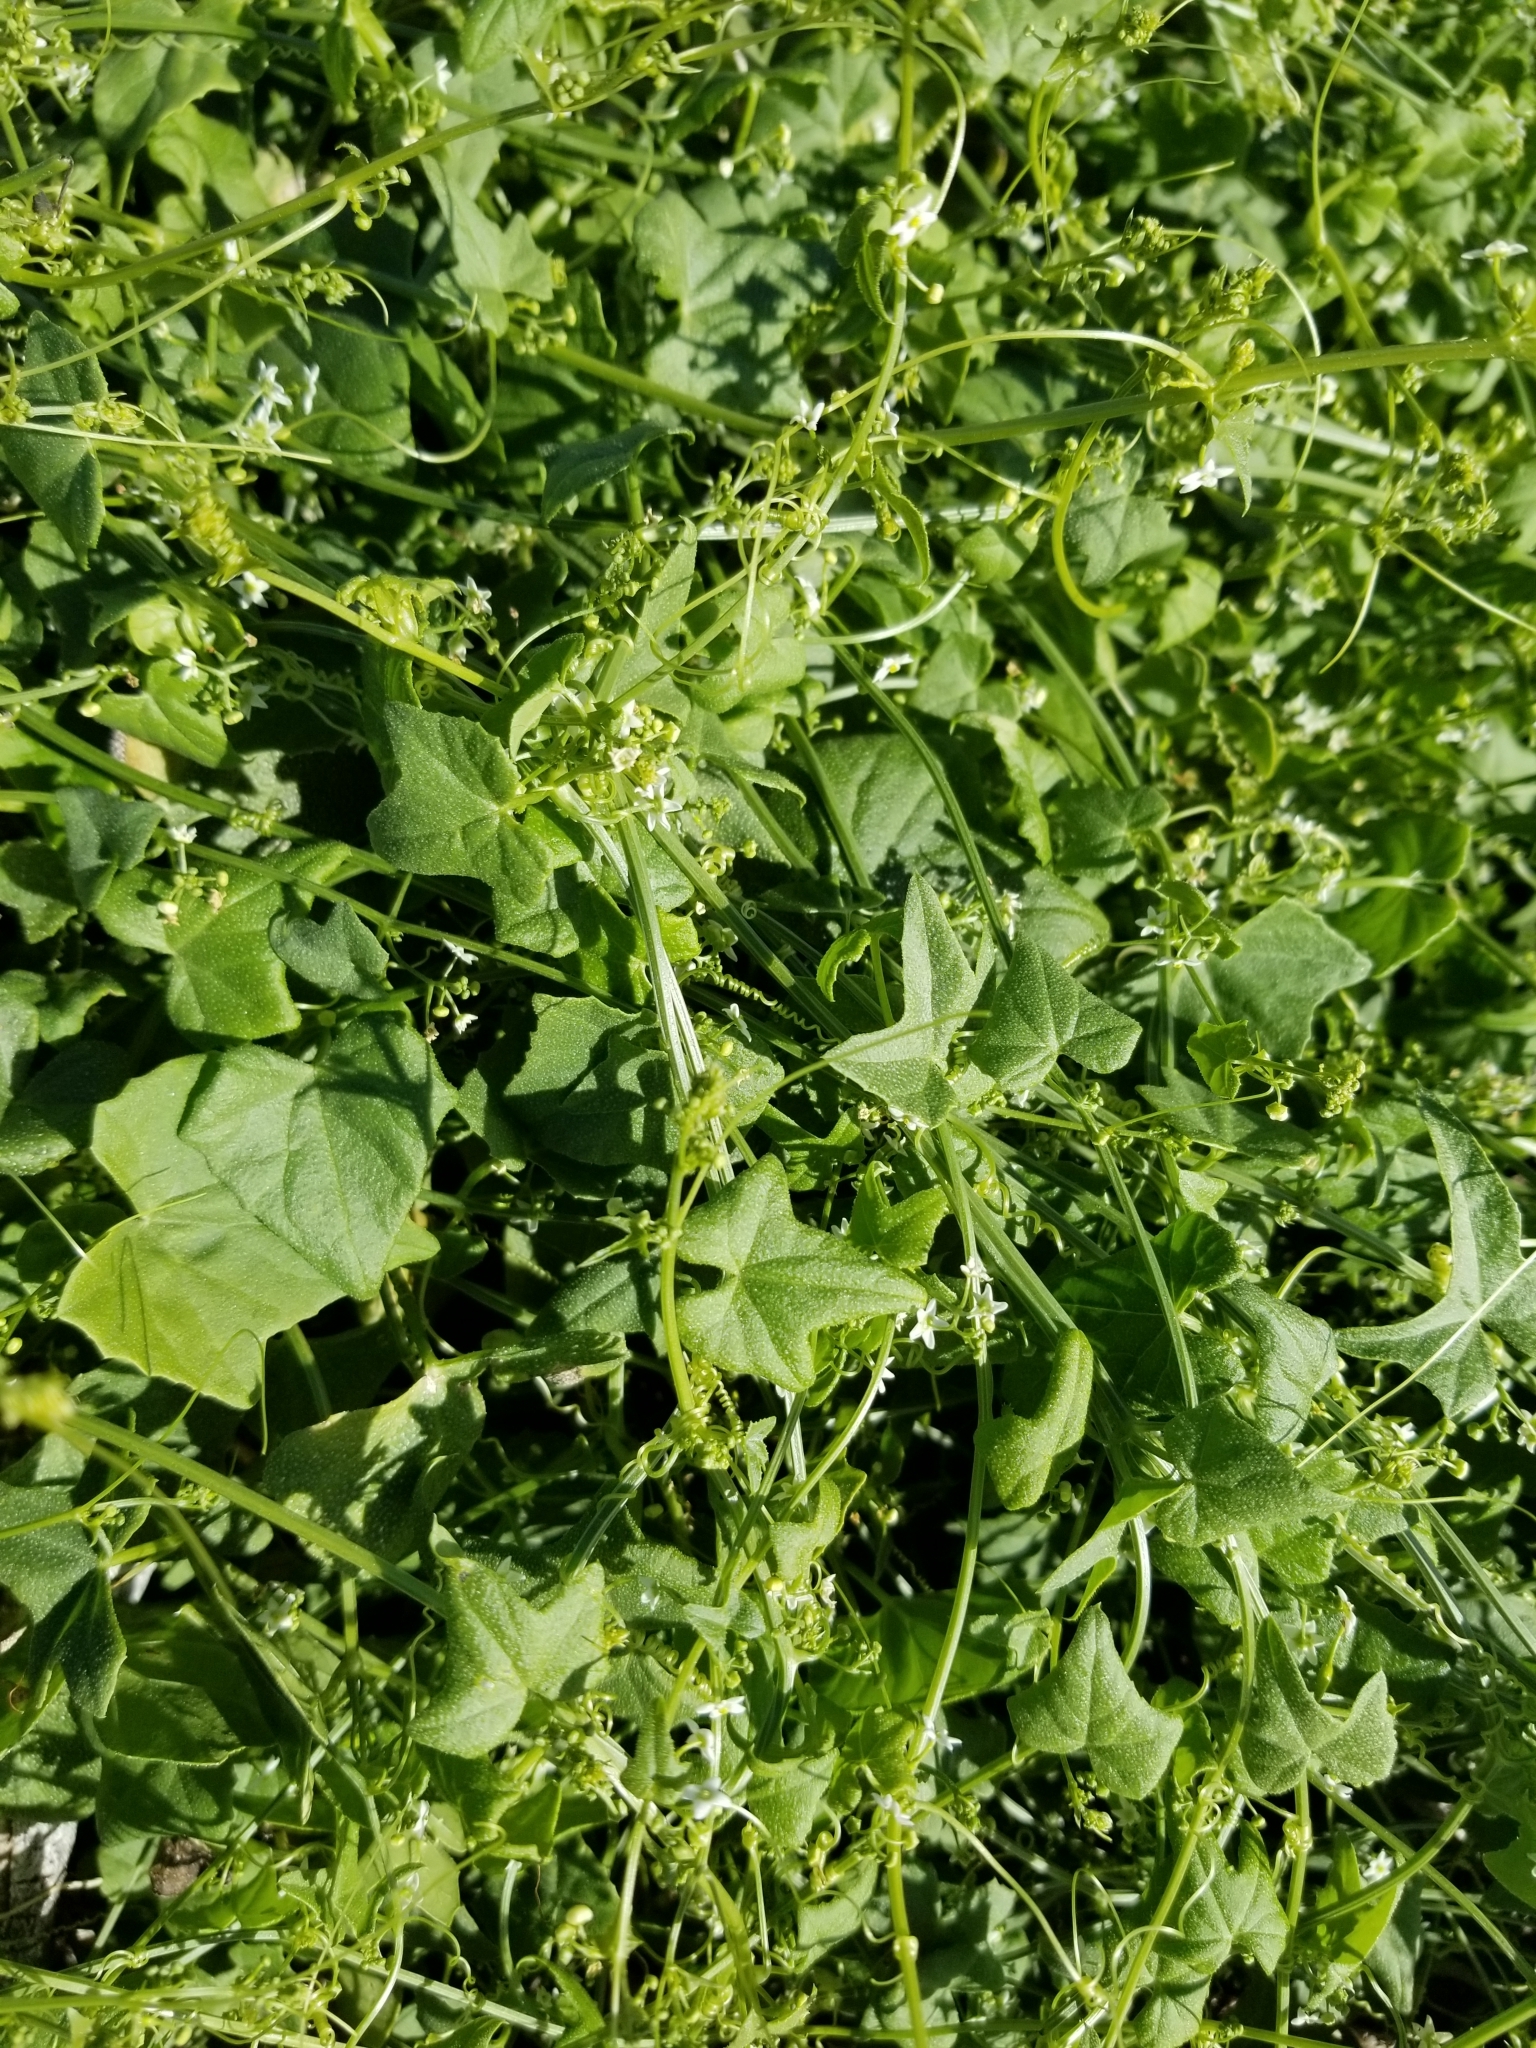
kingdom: Plantae
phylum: Tracheophyta
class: Magnoliopsida
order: Cucurbitales
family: Cucurbitaceae
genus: Echinopepon
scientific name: Echinopepon bigelovii
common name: Desert starvine
